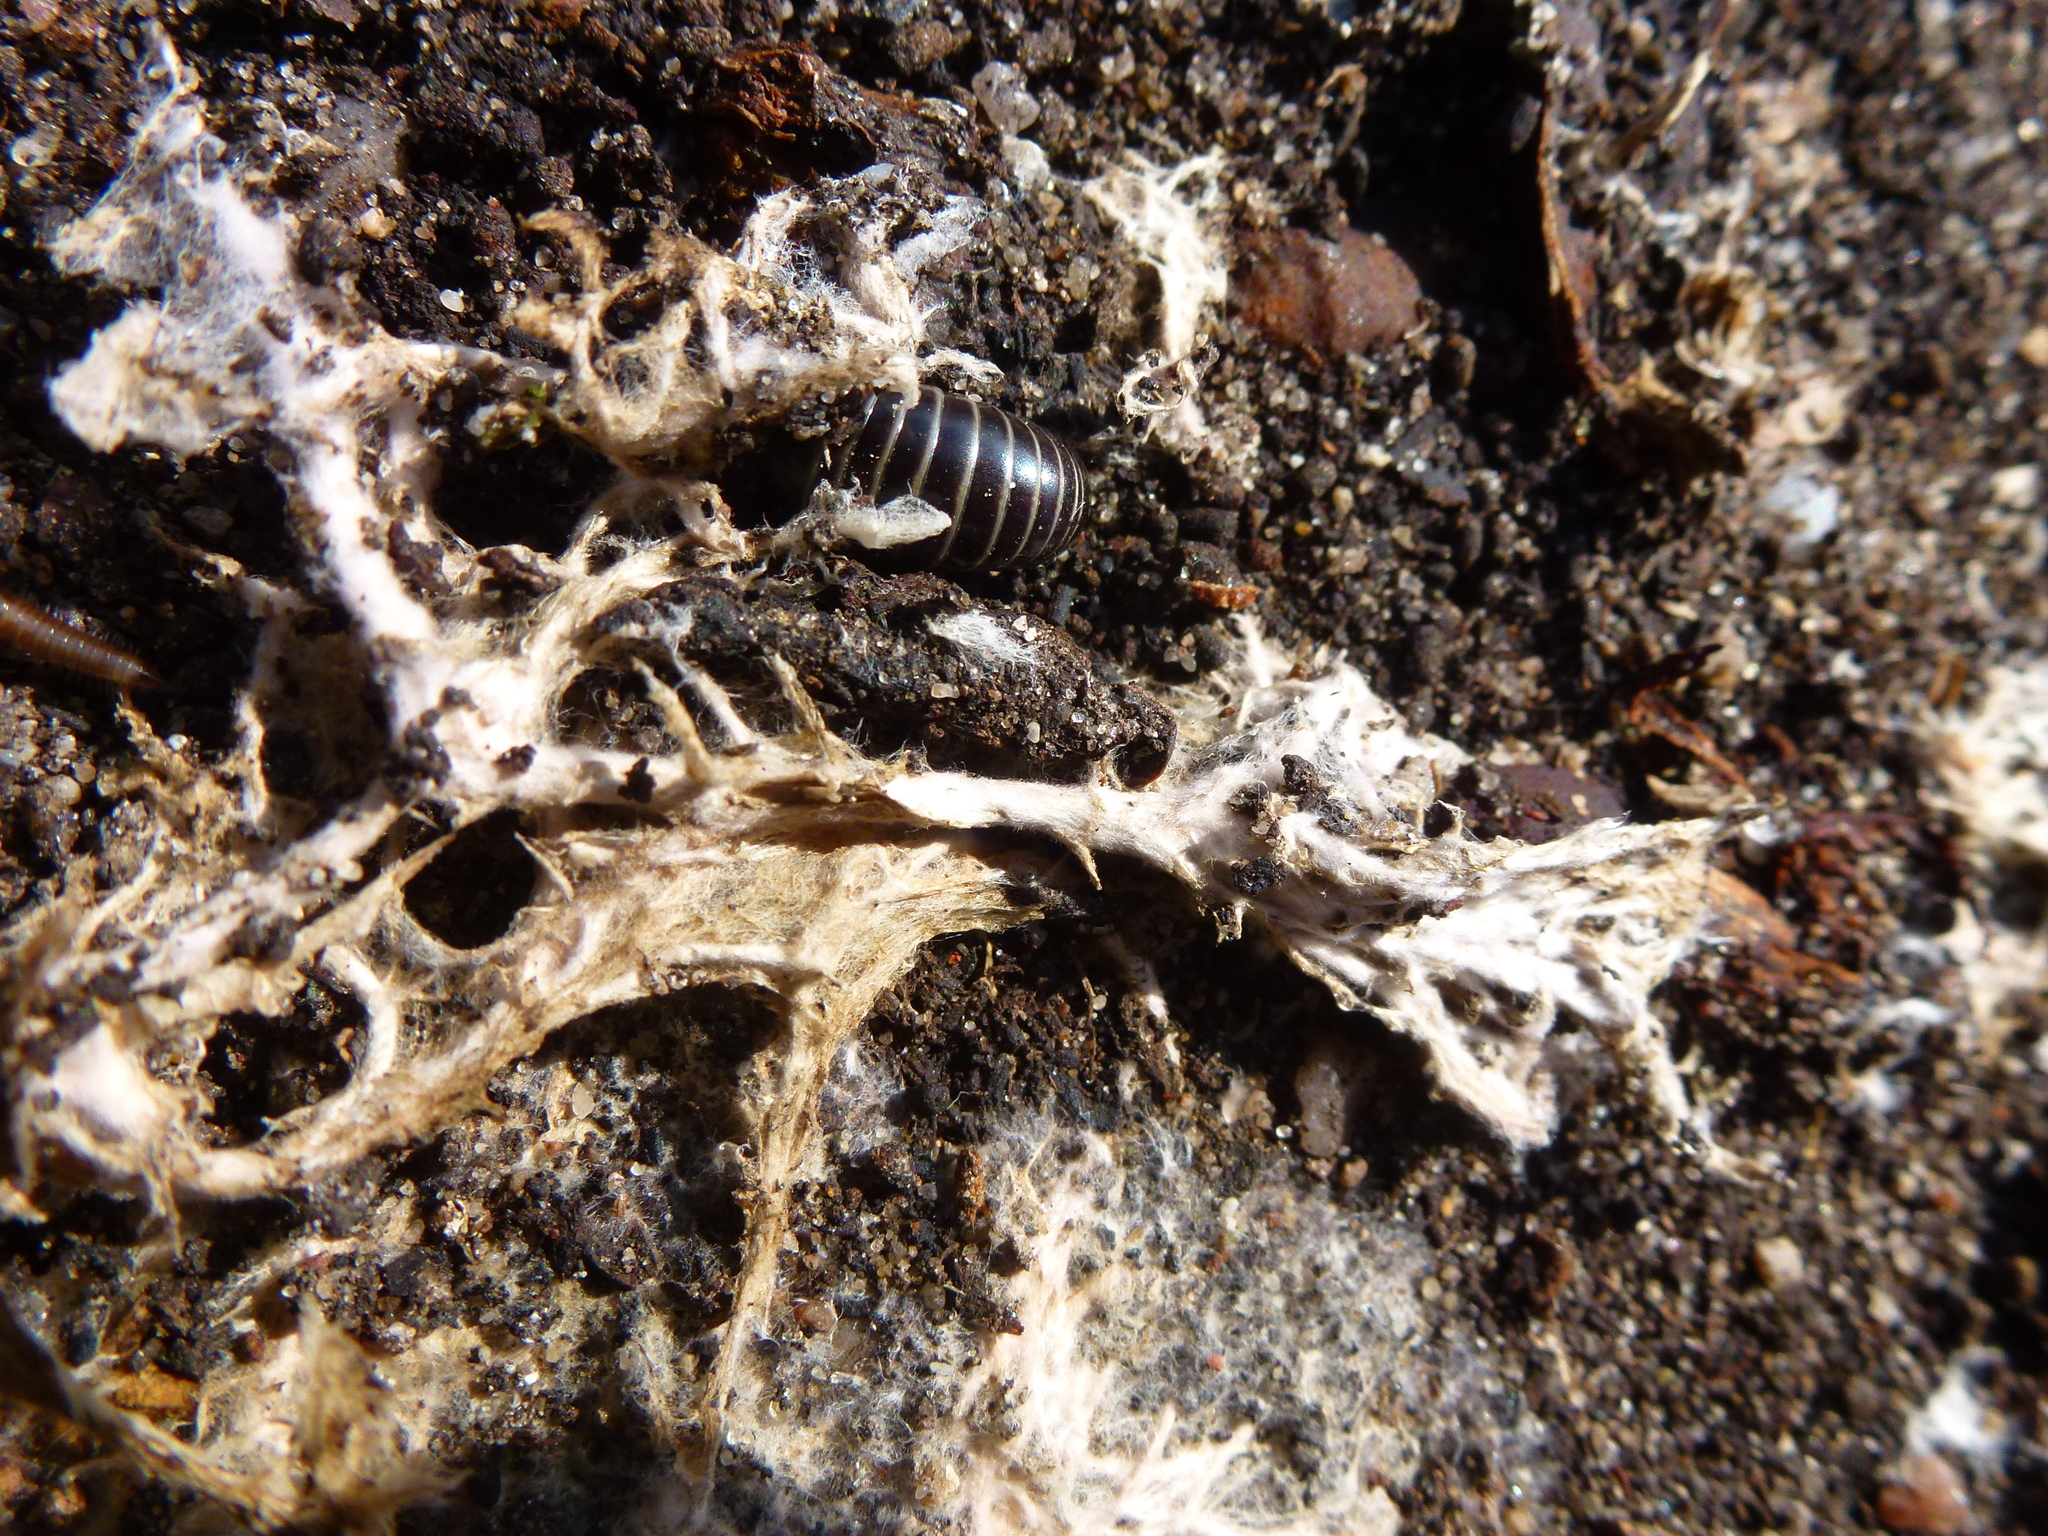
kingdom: Animalia
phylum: Arthropoda
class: Diplopoda
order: Glomerida
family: Glomeridae
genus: Glomeris
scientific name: Glomeris marginata
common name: Bordered pill millipede
